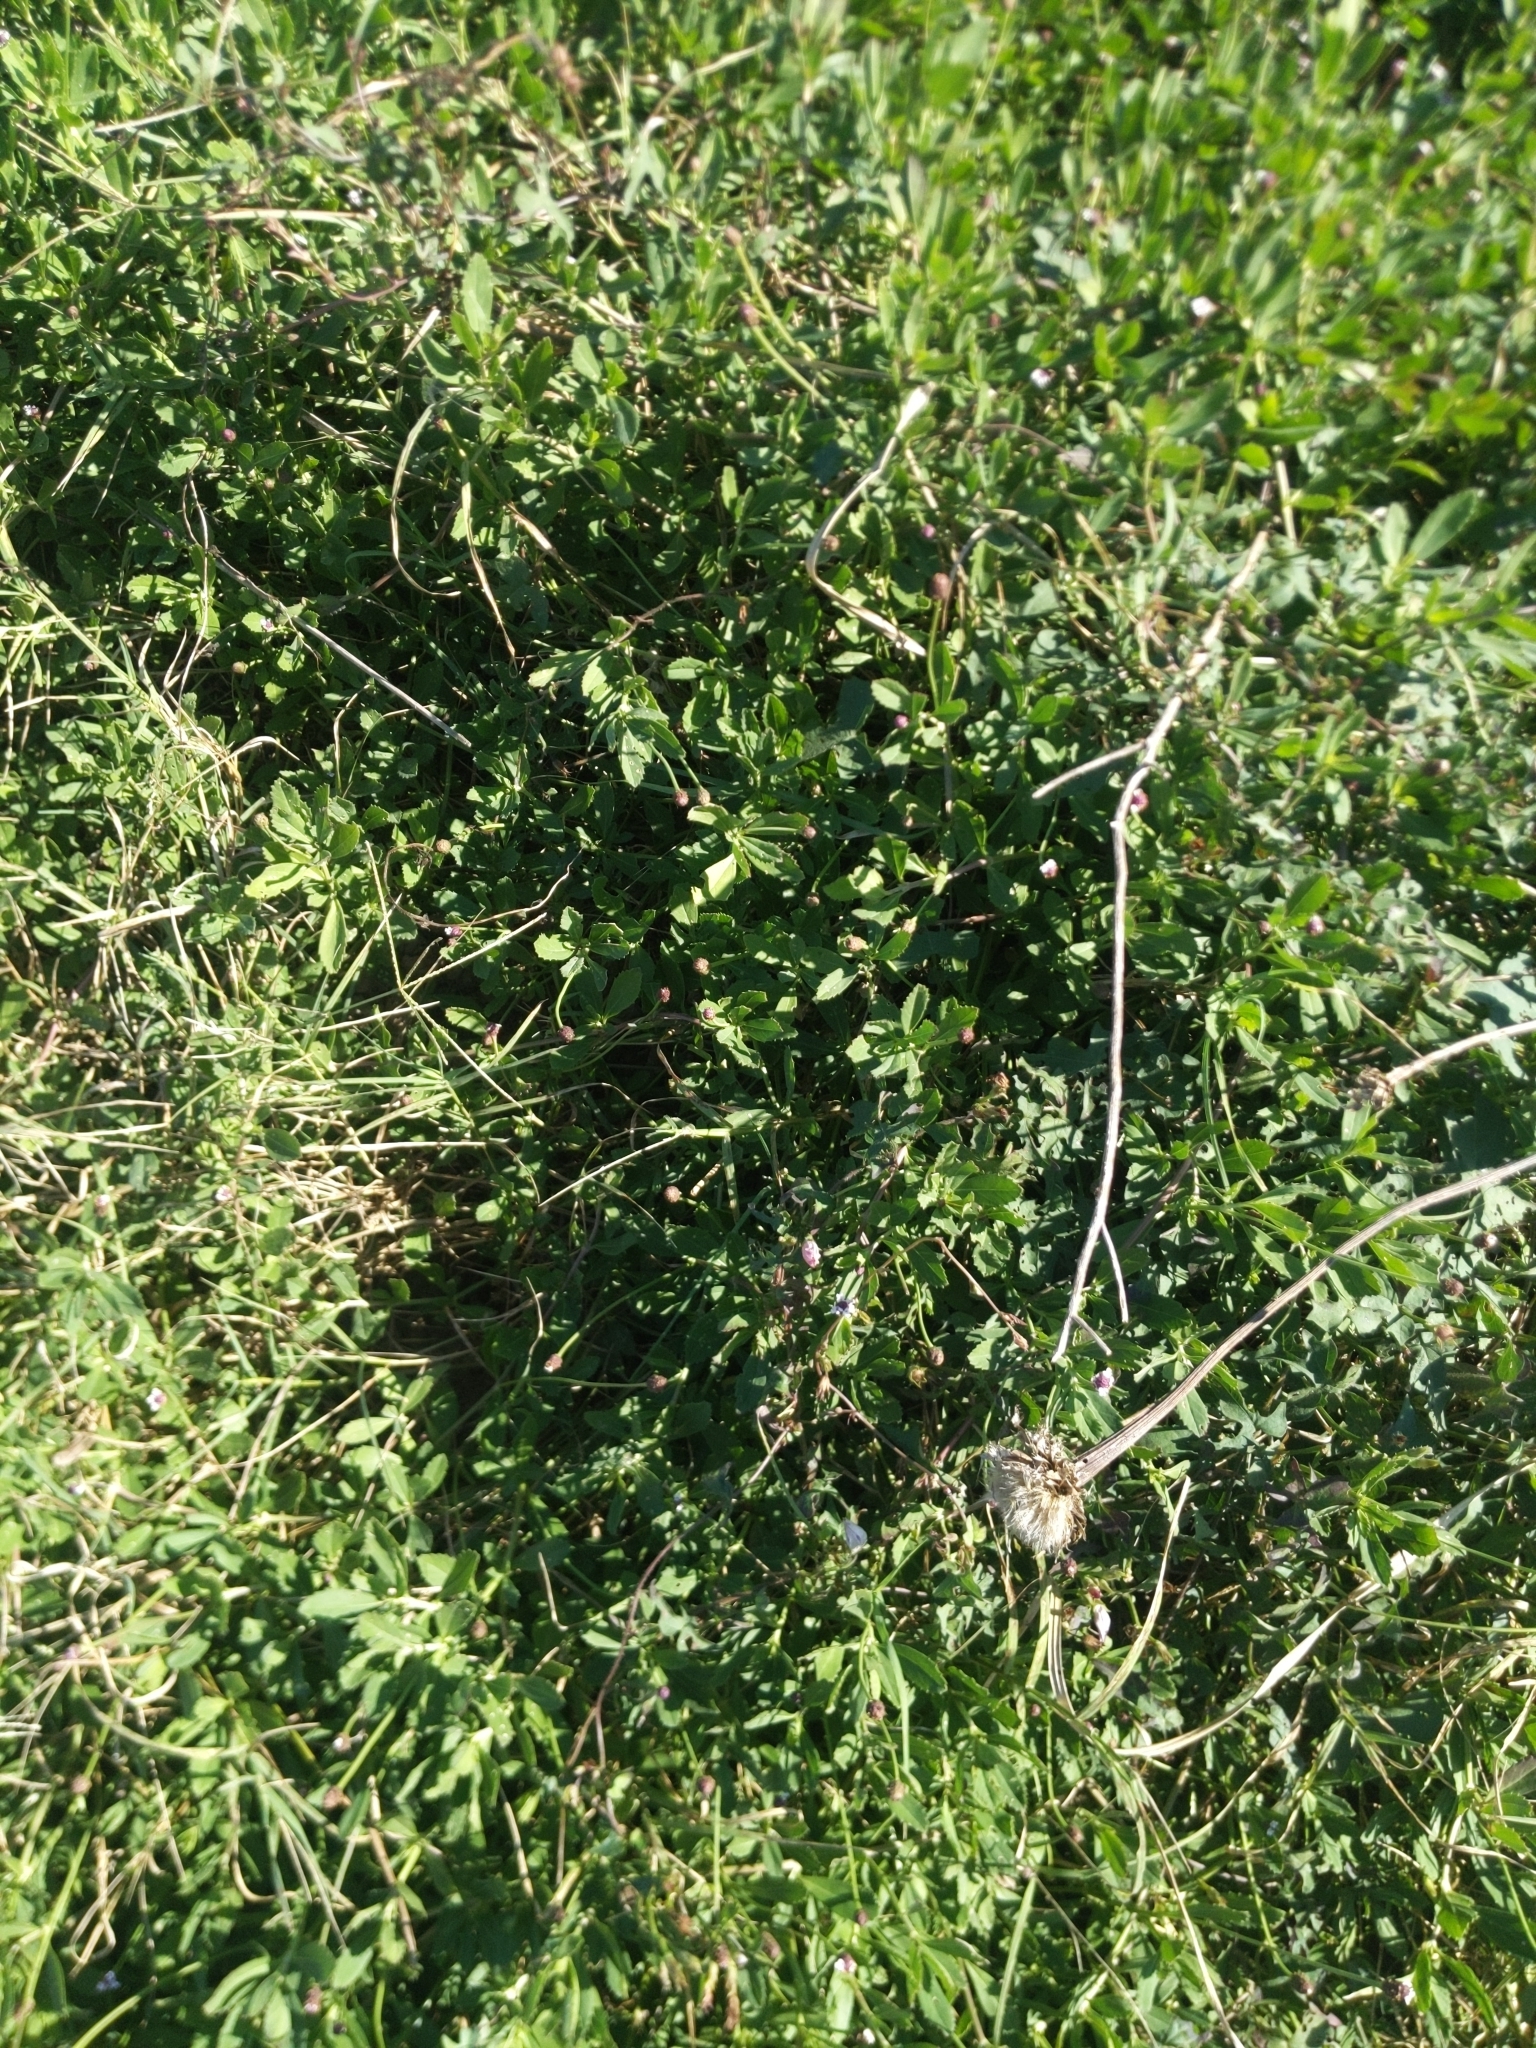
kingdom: Plantae
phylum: Tracheophyta
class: Magnoliopsida
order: Lamiales
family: Verbenaceae
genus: Phyla
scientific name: Phyla nodiflora
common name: Frogfruit
